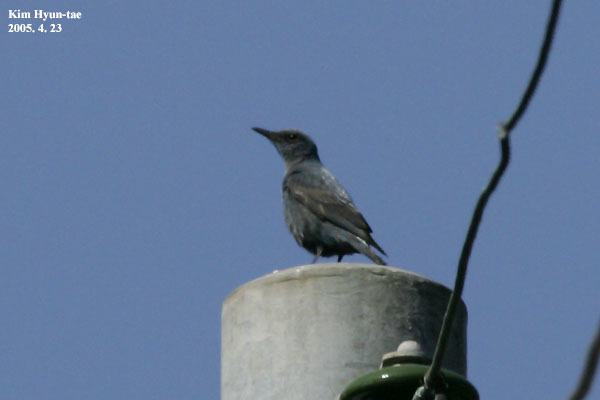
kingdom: Animalia
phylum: Chordata
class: Aves
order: Passeriformes
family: Muscicapidae
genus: Monticola
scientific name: Monticola solitarius
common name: Blue rock thrush
